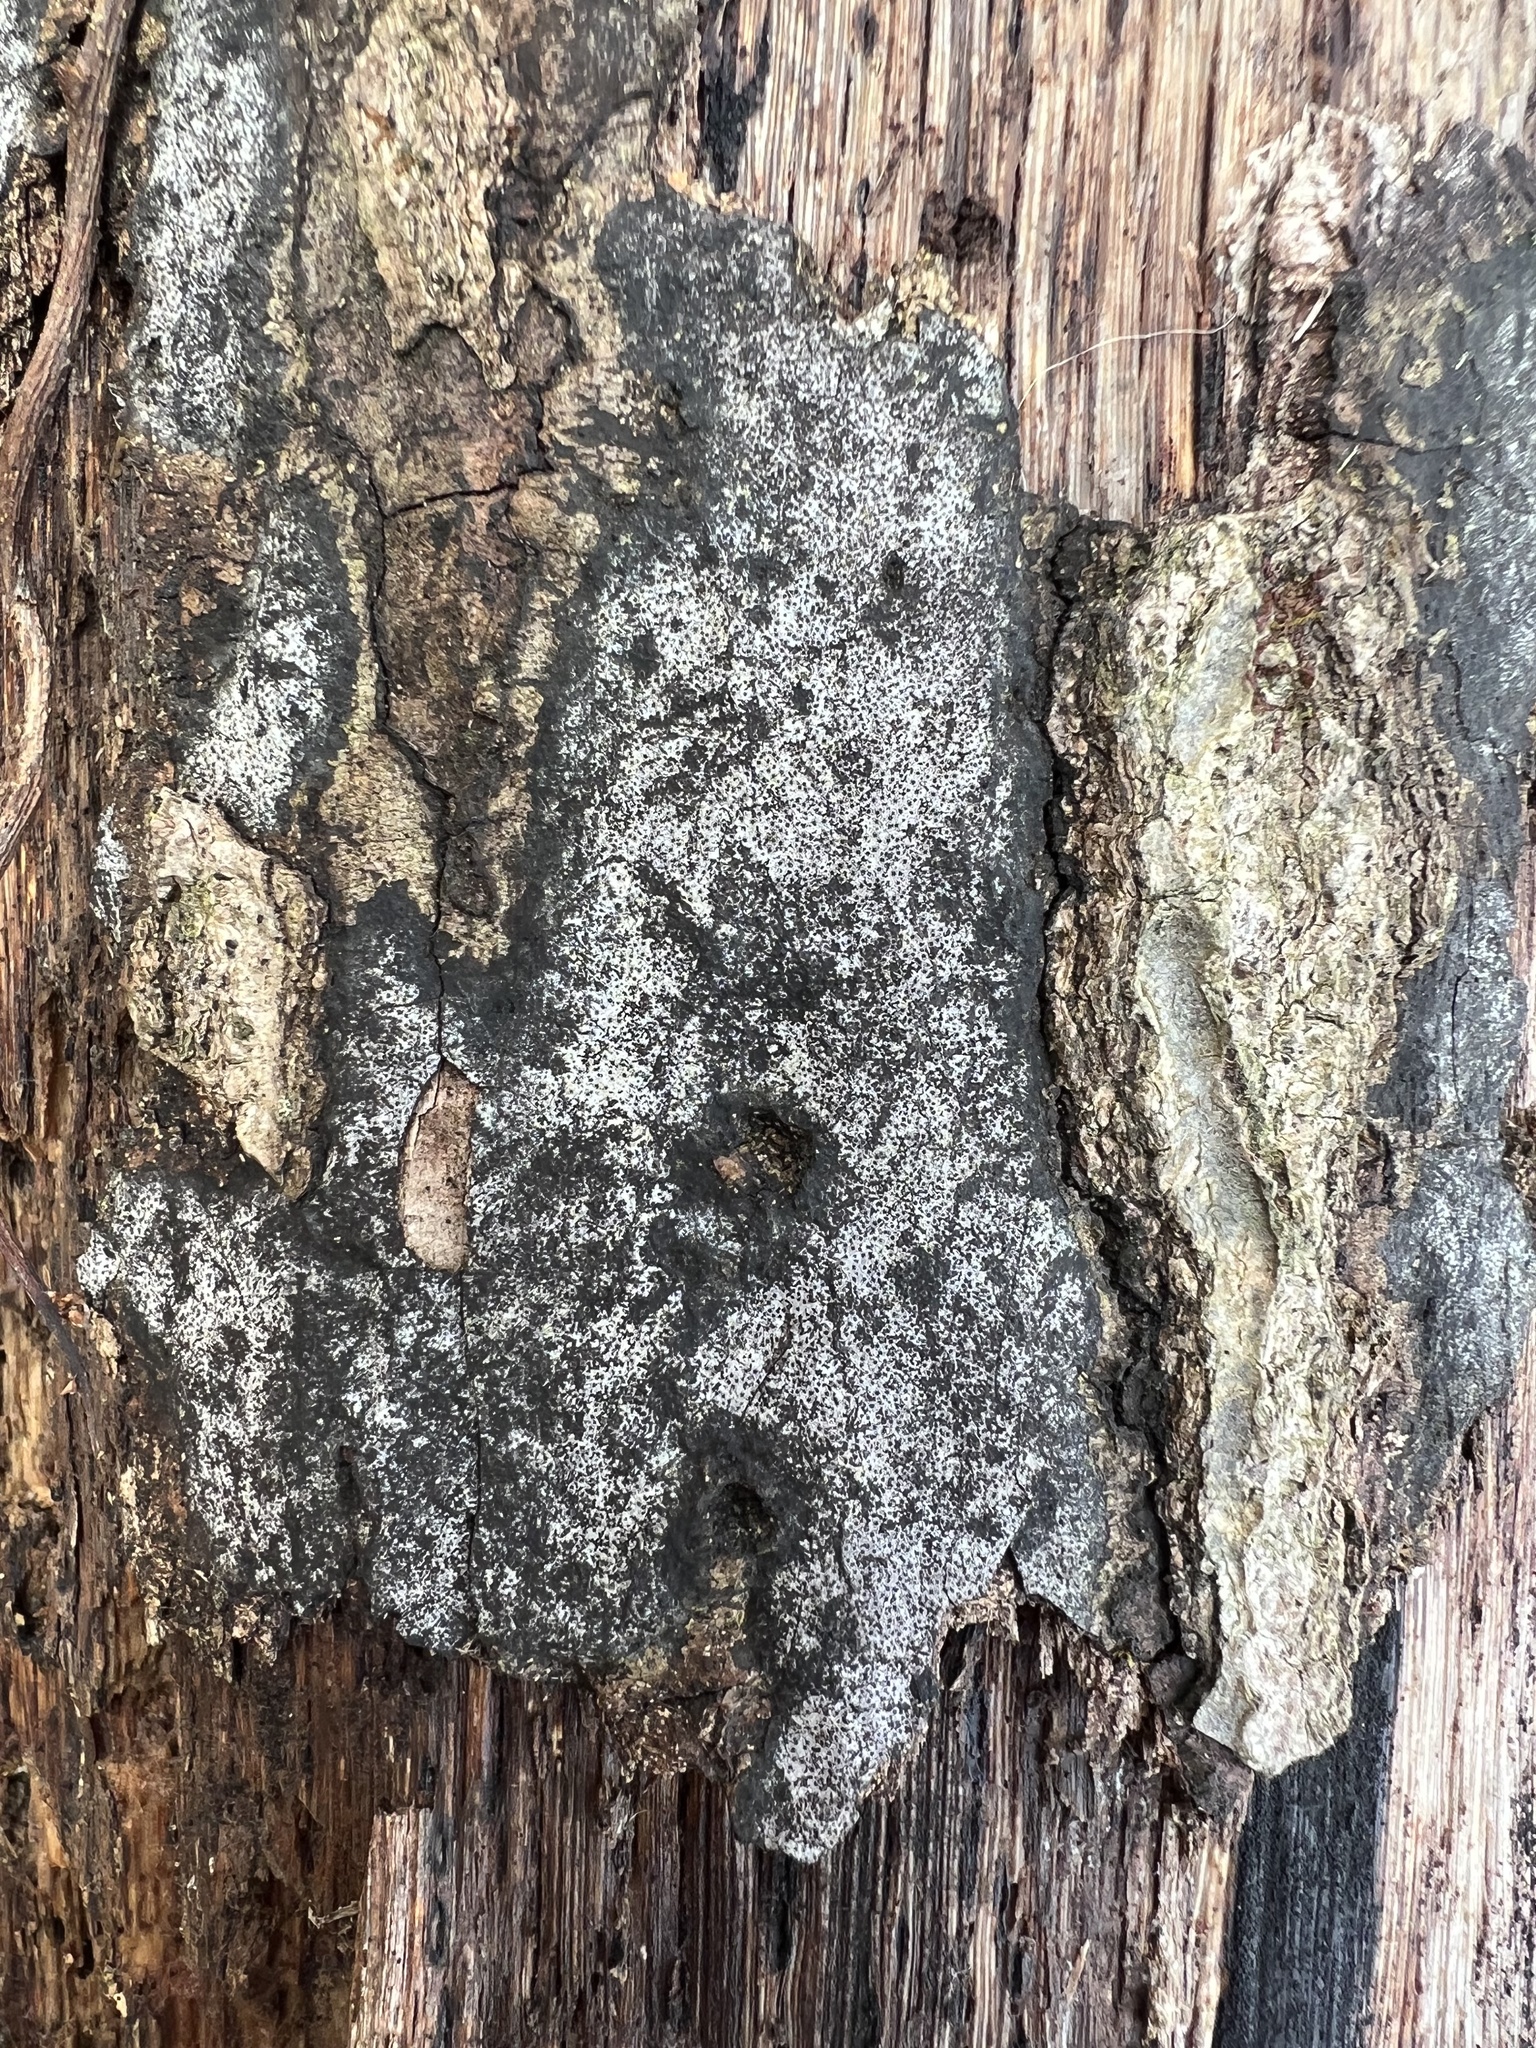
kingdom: Fungi
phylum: Ascomycota
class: Sordariomycetes
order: Xylariales
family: Graphostromataceae
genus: Biscogniauxia
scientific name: Biscogniauxia atropunctata
